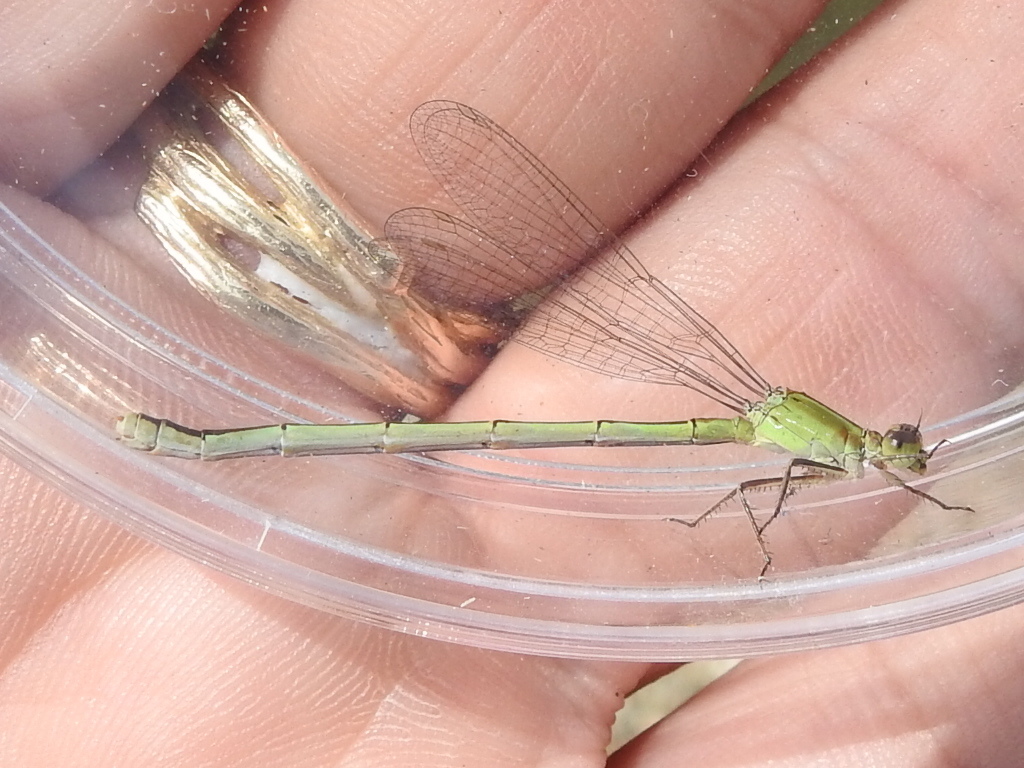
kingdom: Animalia
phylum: Arthropoda
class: Insecta
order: Odonata
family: Coenagrionidae
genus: Ischnura
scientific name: Ischnura ramburii
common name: Rambur's forktail
